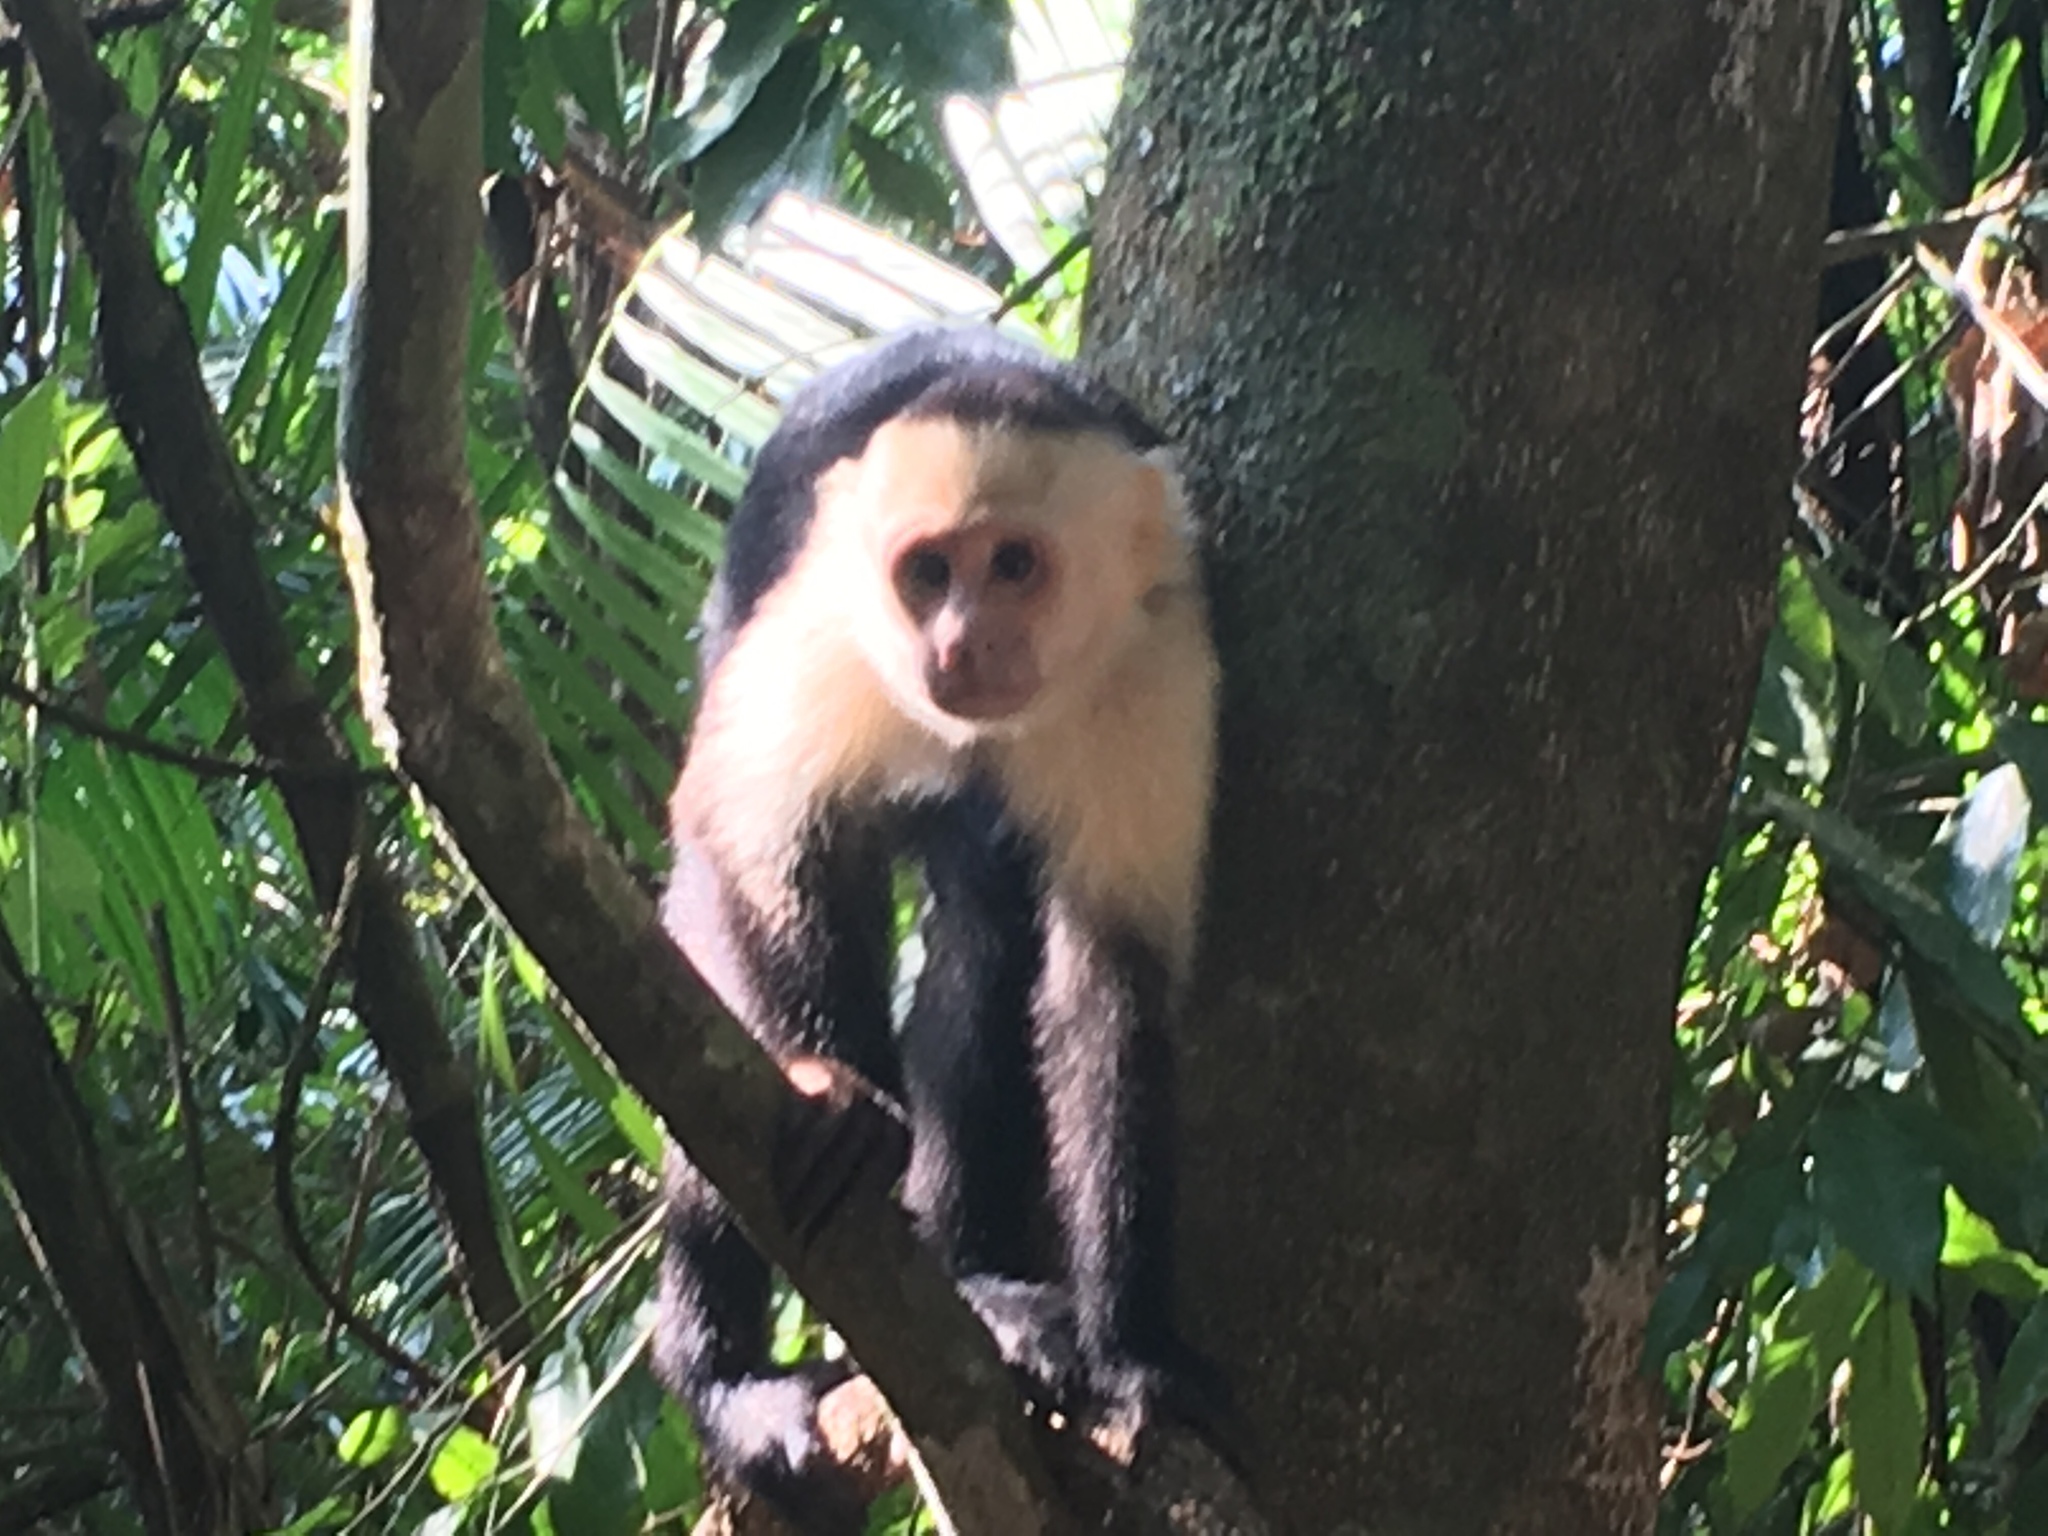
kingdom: Animalia
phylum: Chordata
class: Mammalia
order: Primates
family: Cebidae
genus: Cebus
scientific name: Cebus imitator
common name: Panamanian white-faced capuchin
